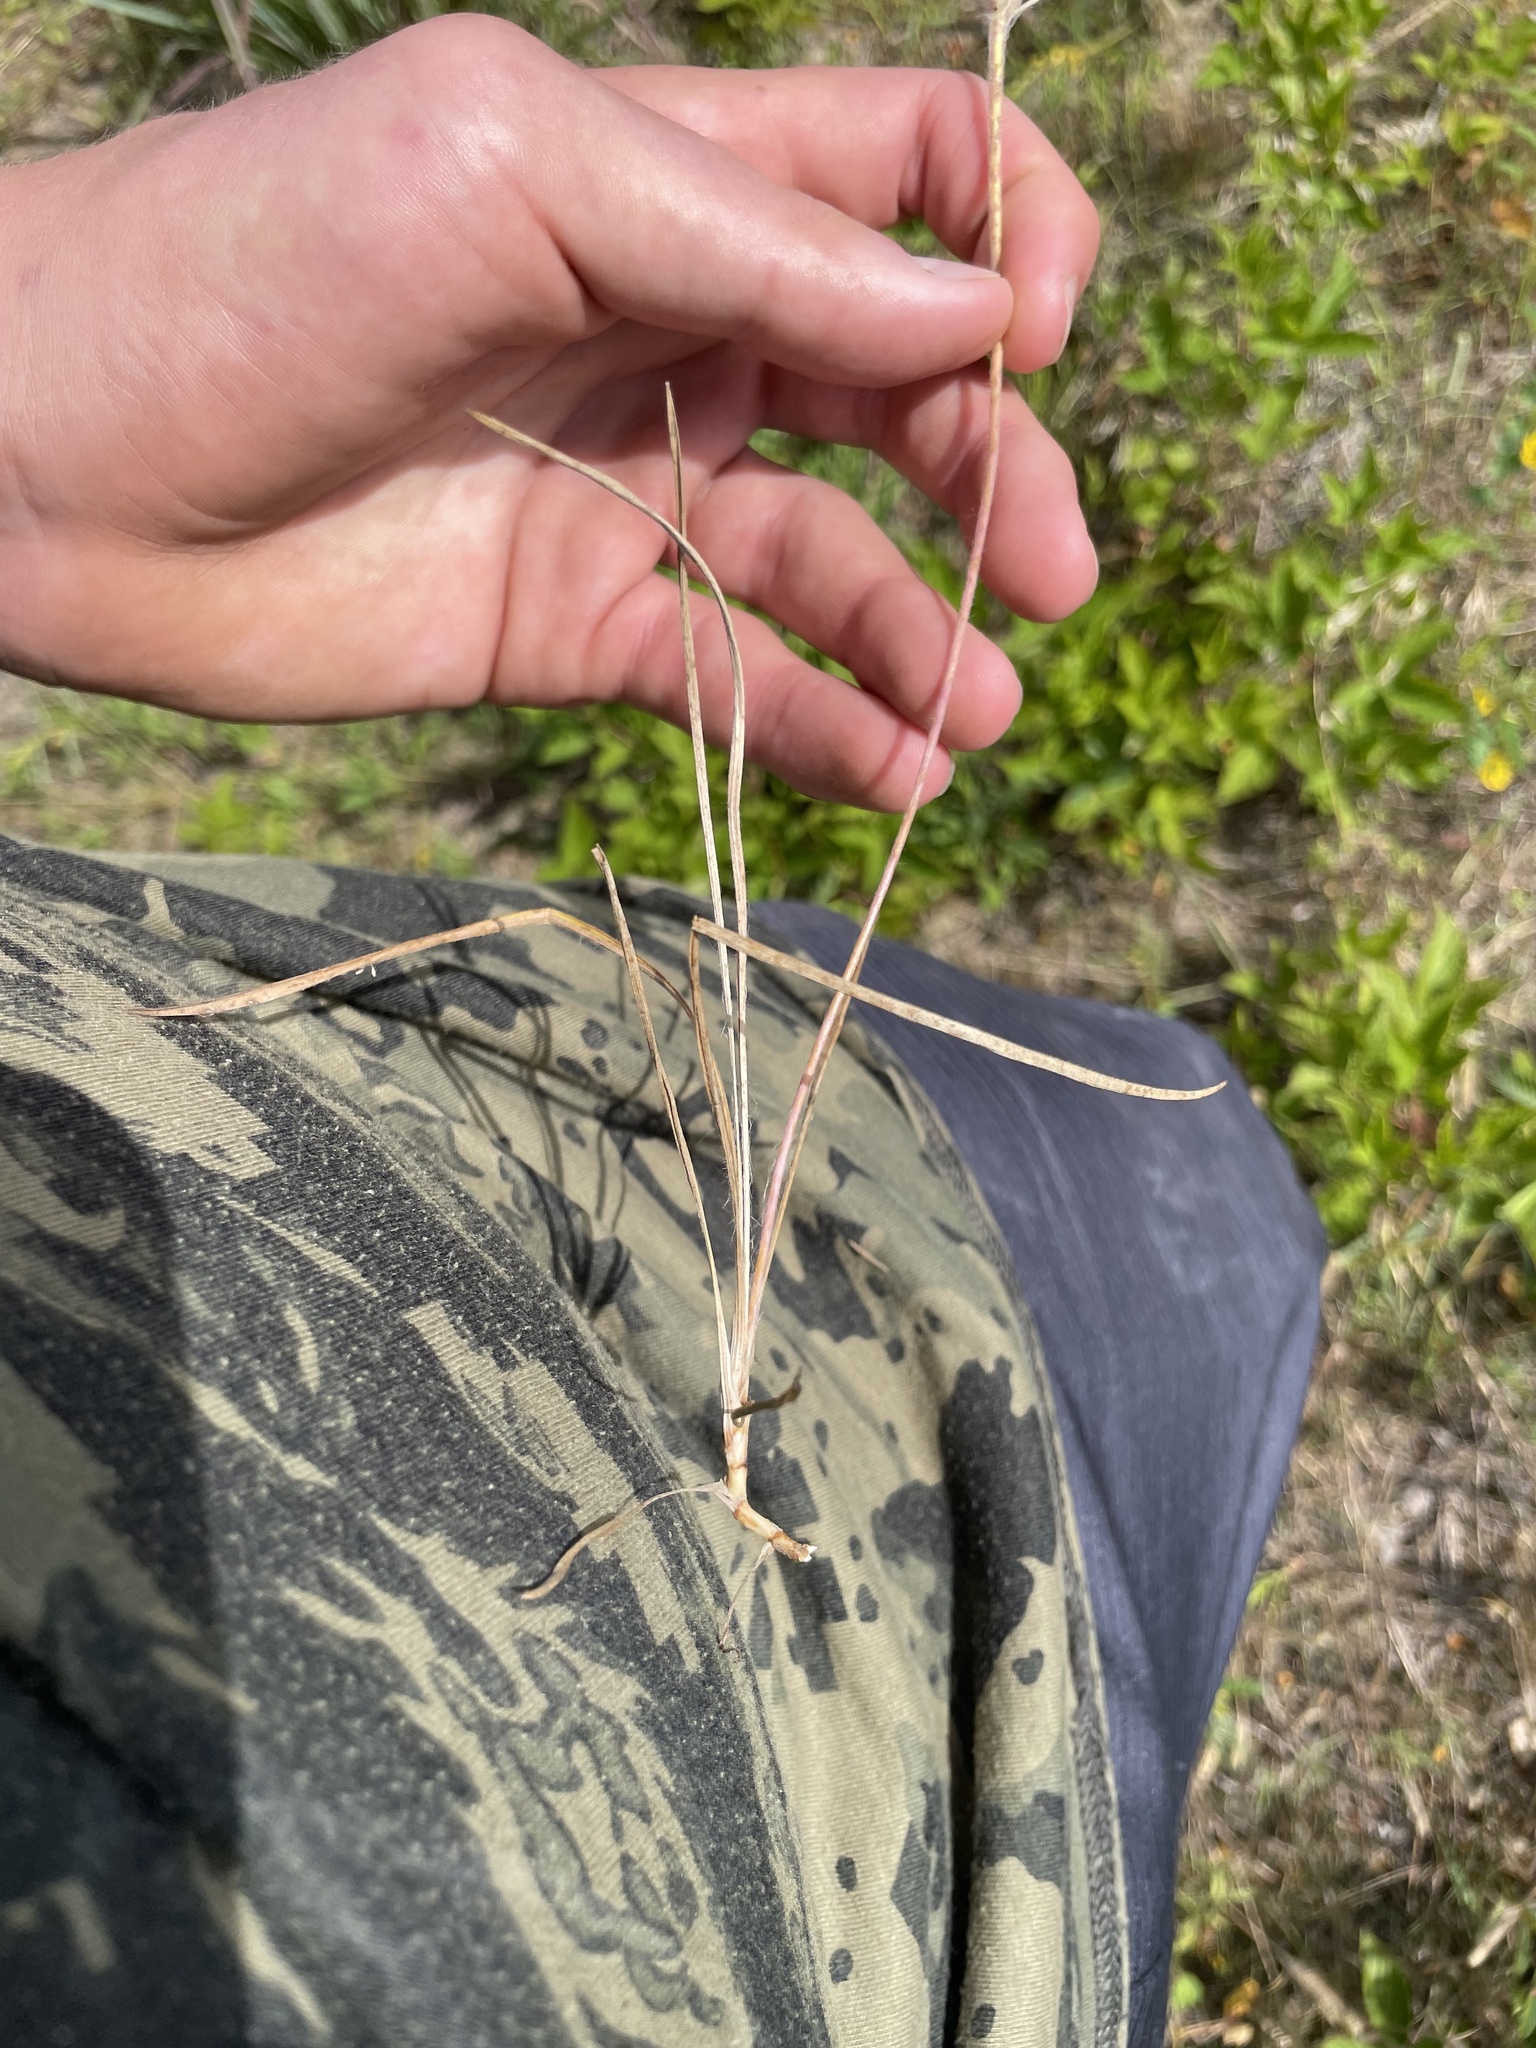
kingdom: Plantae
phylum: Tracheophyta
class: Magnoliopsida
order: Lamiales
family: Plantaginaceae
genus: Plantago
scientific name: Plantago aristata
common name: Bracted plantain
